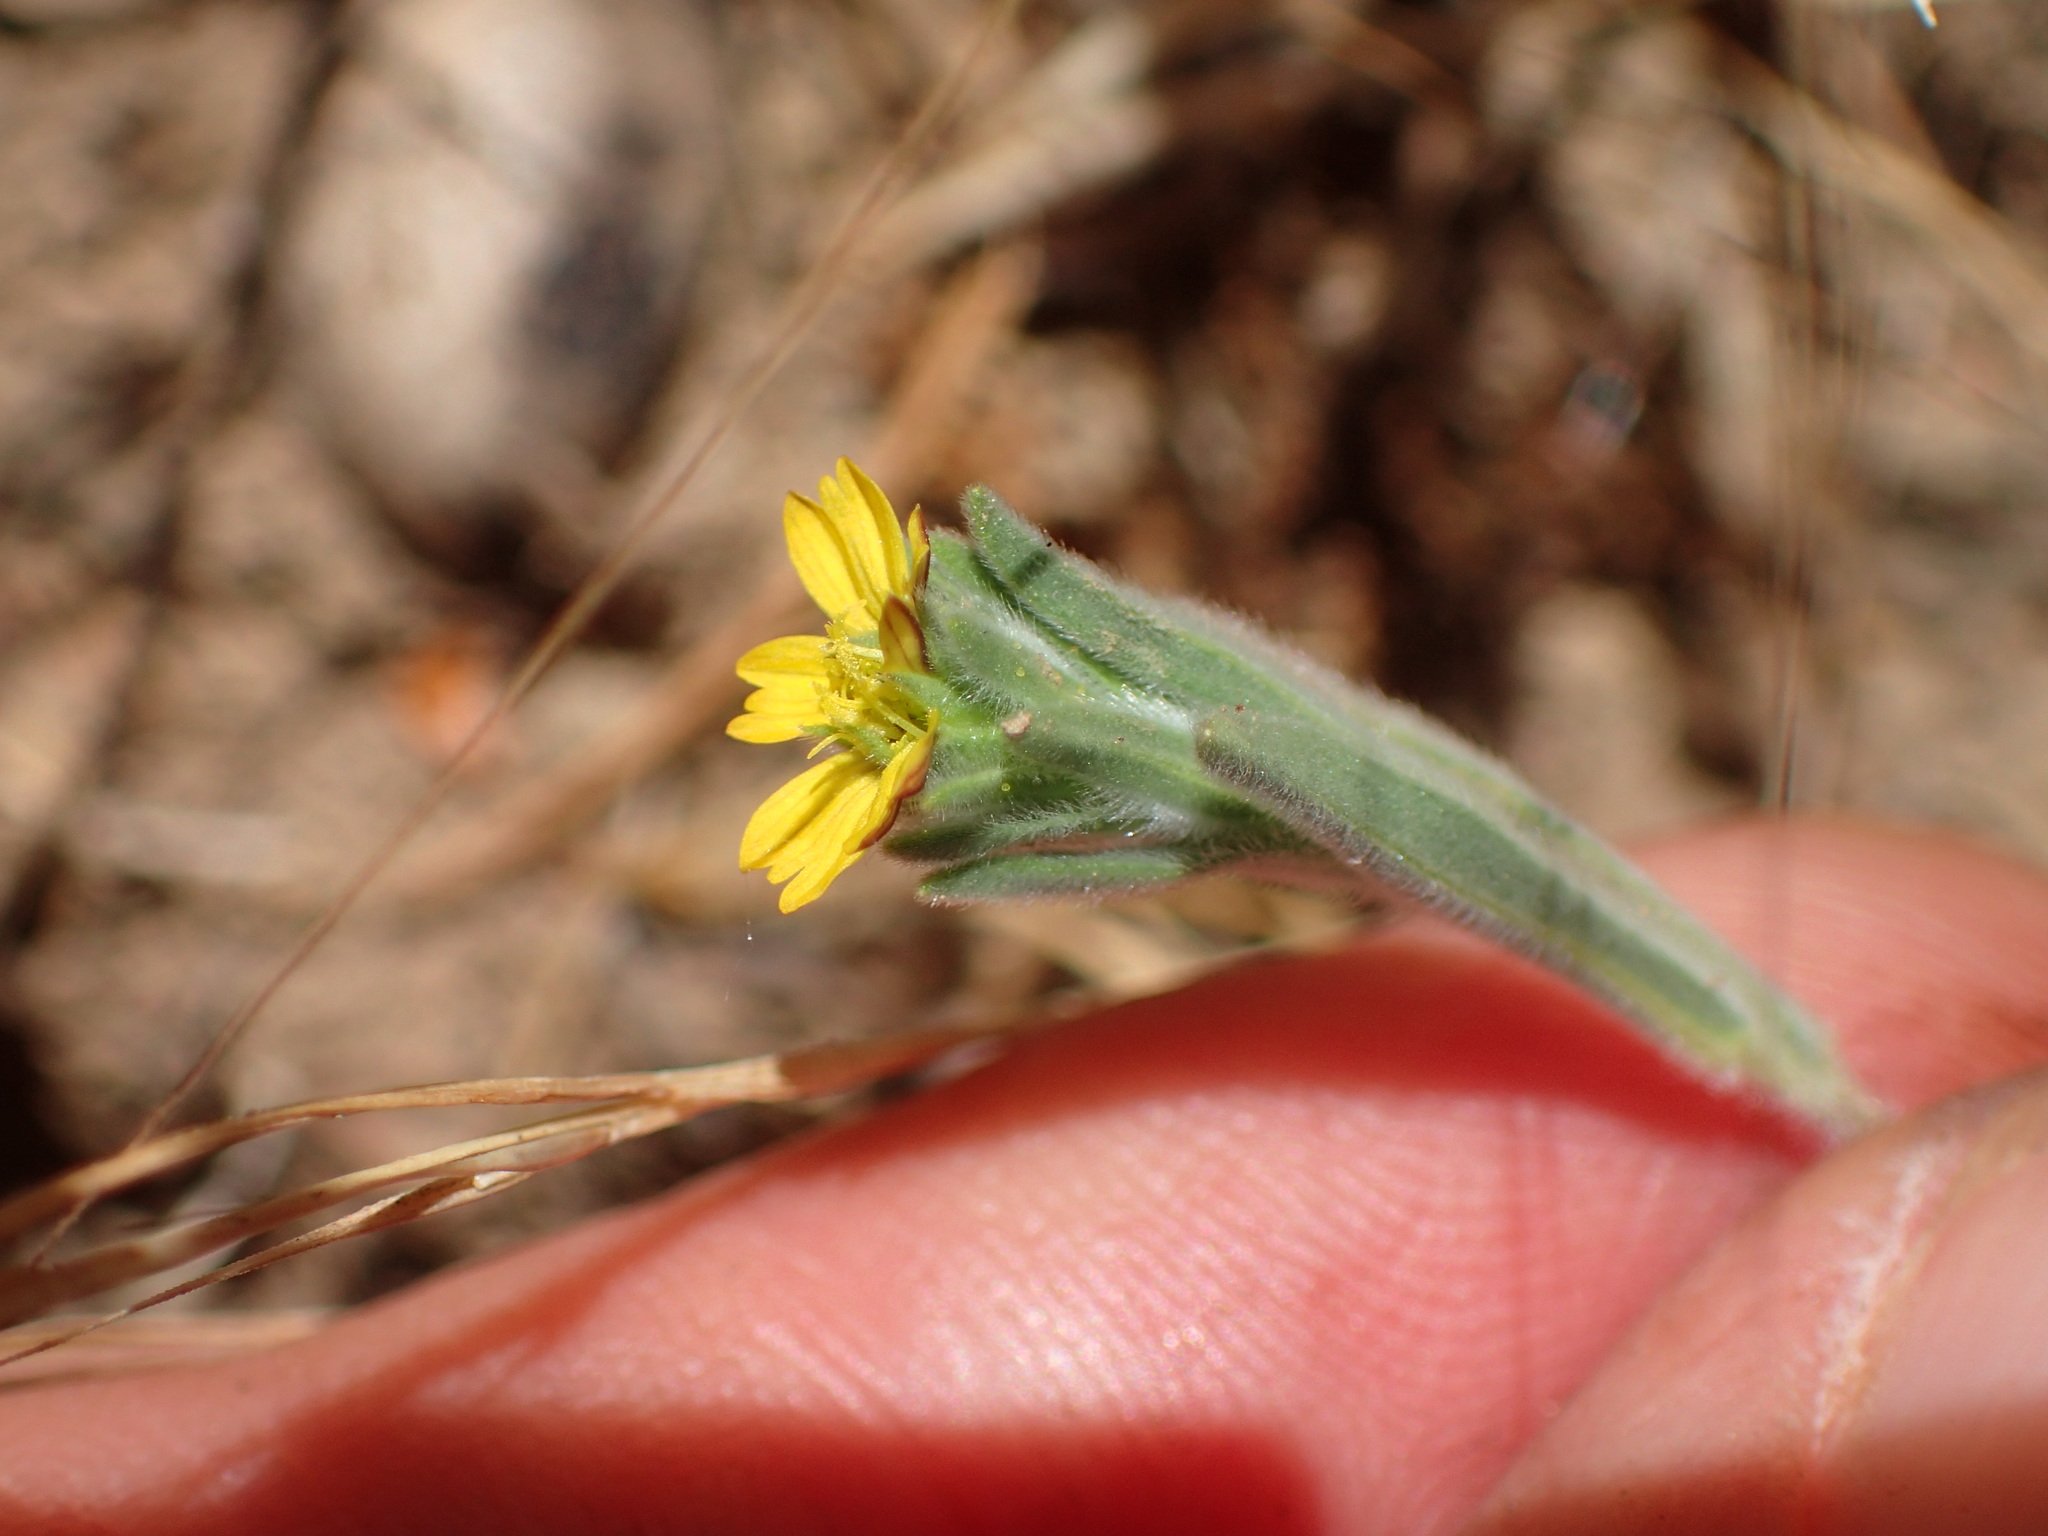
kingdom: Plantae
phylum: Tracheophyta
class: Magnoliopsida
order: Asterales
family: Asteraceae
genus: Lagophylla
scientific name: Lagophylla ramosissima
